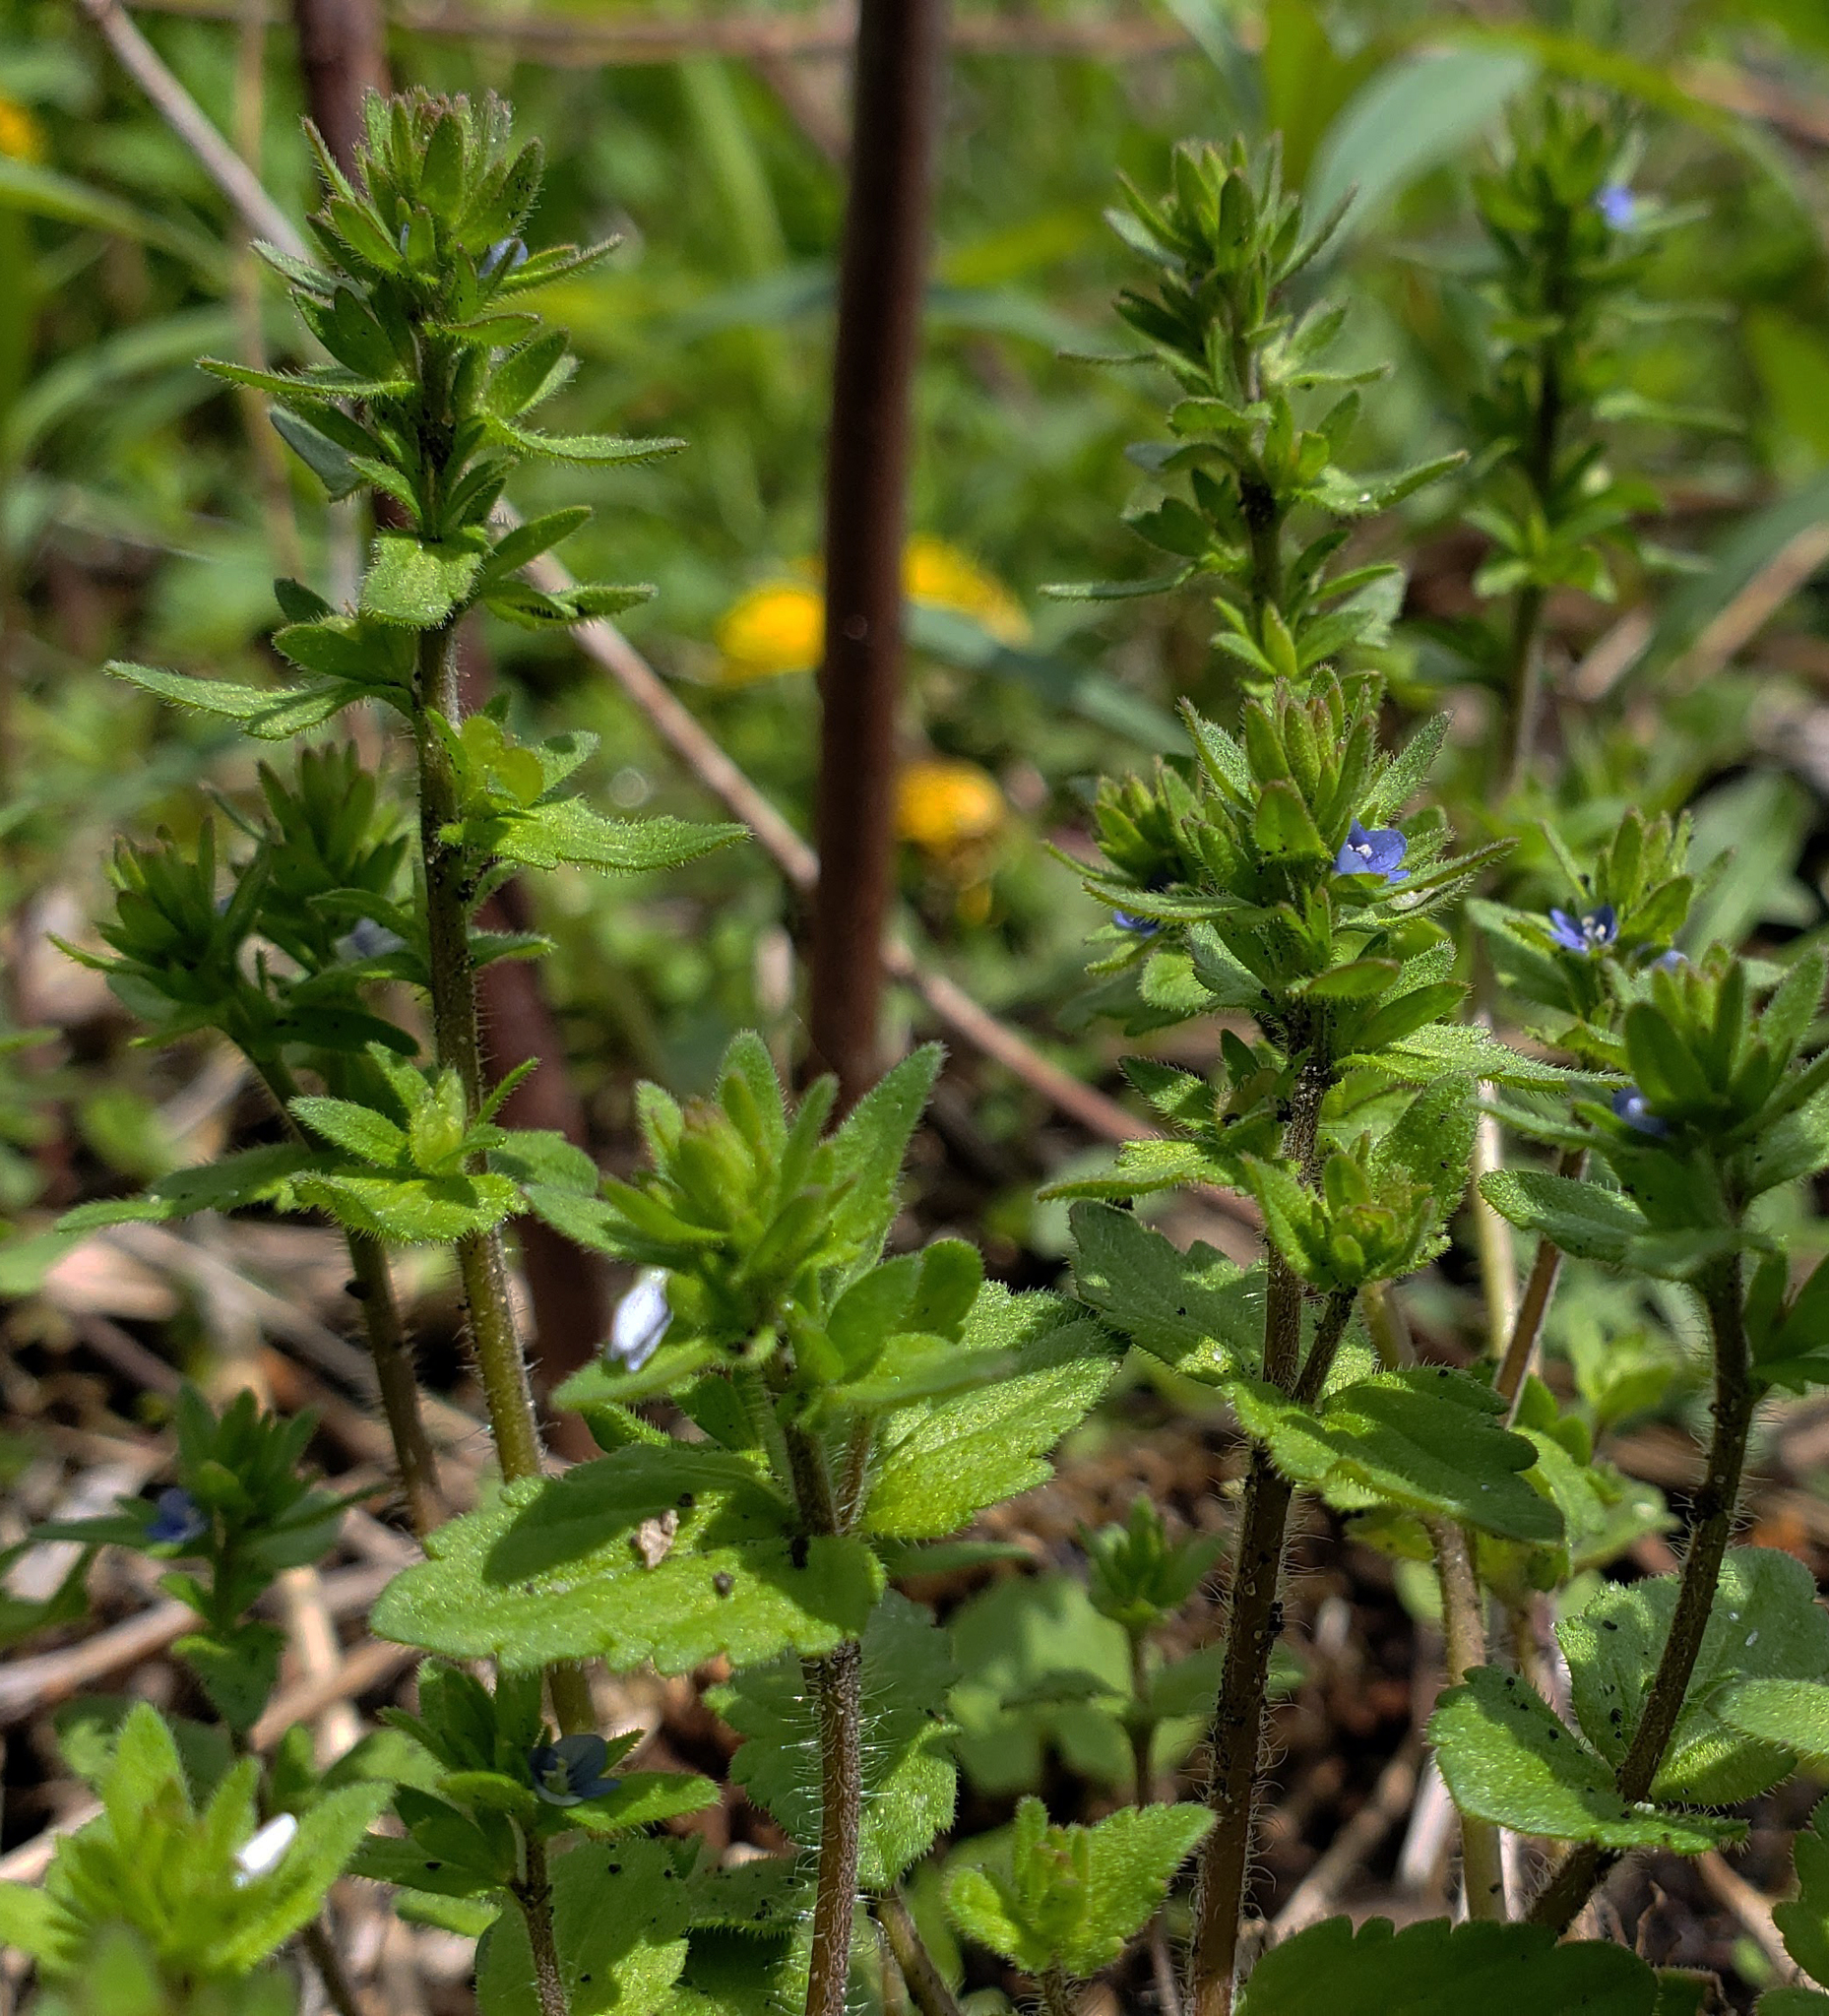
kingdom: Plantae
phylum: Tracheophyta
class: Magnoliopsida
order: Lamiales
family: Plantaginaceae
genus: Veronica
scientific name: Veronica arvensis
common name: Corn speedwell
